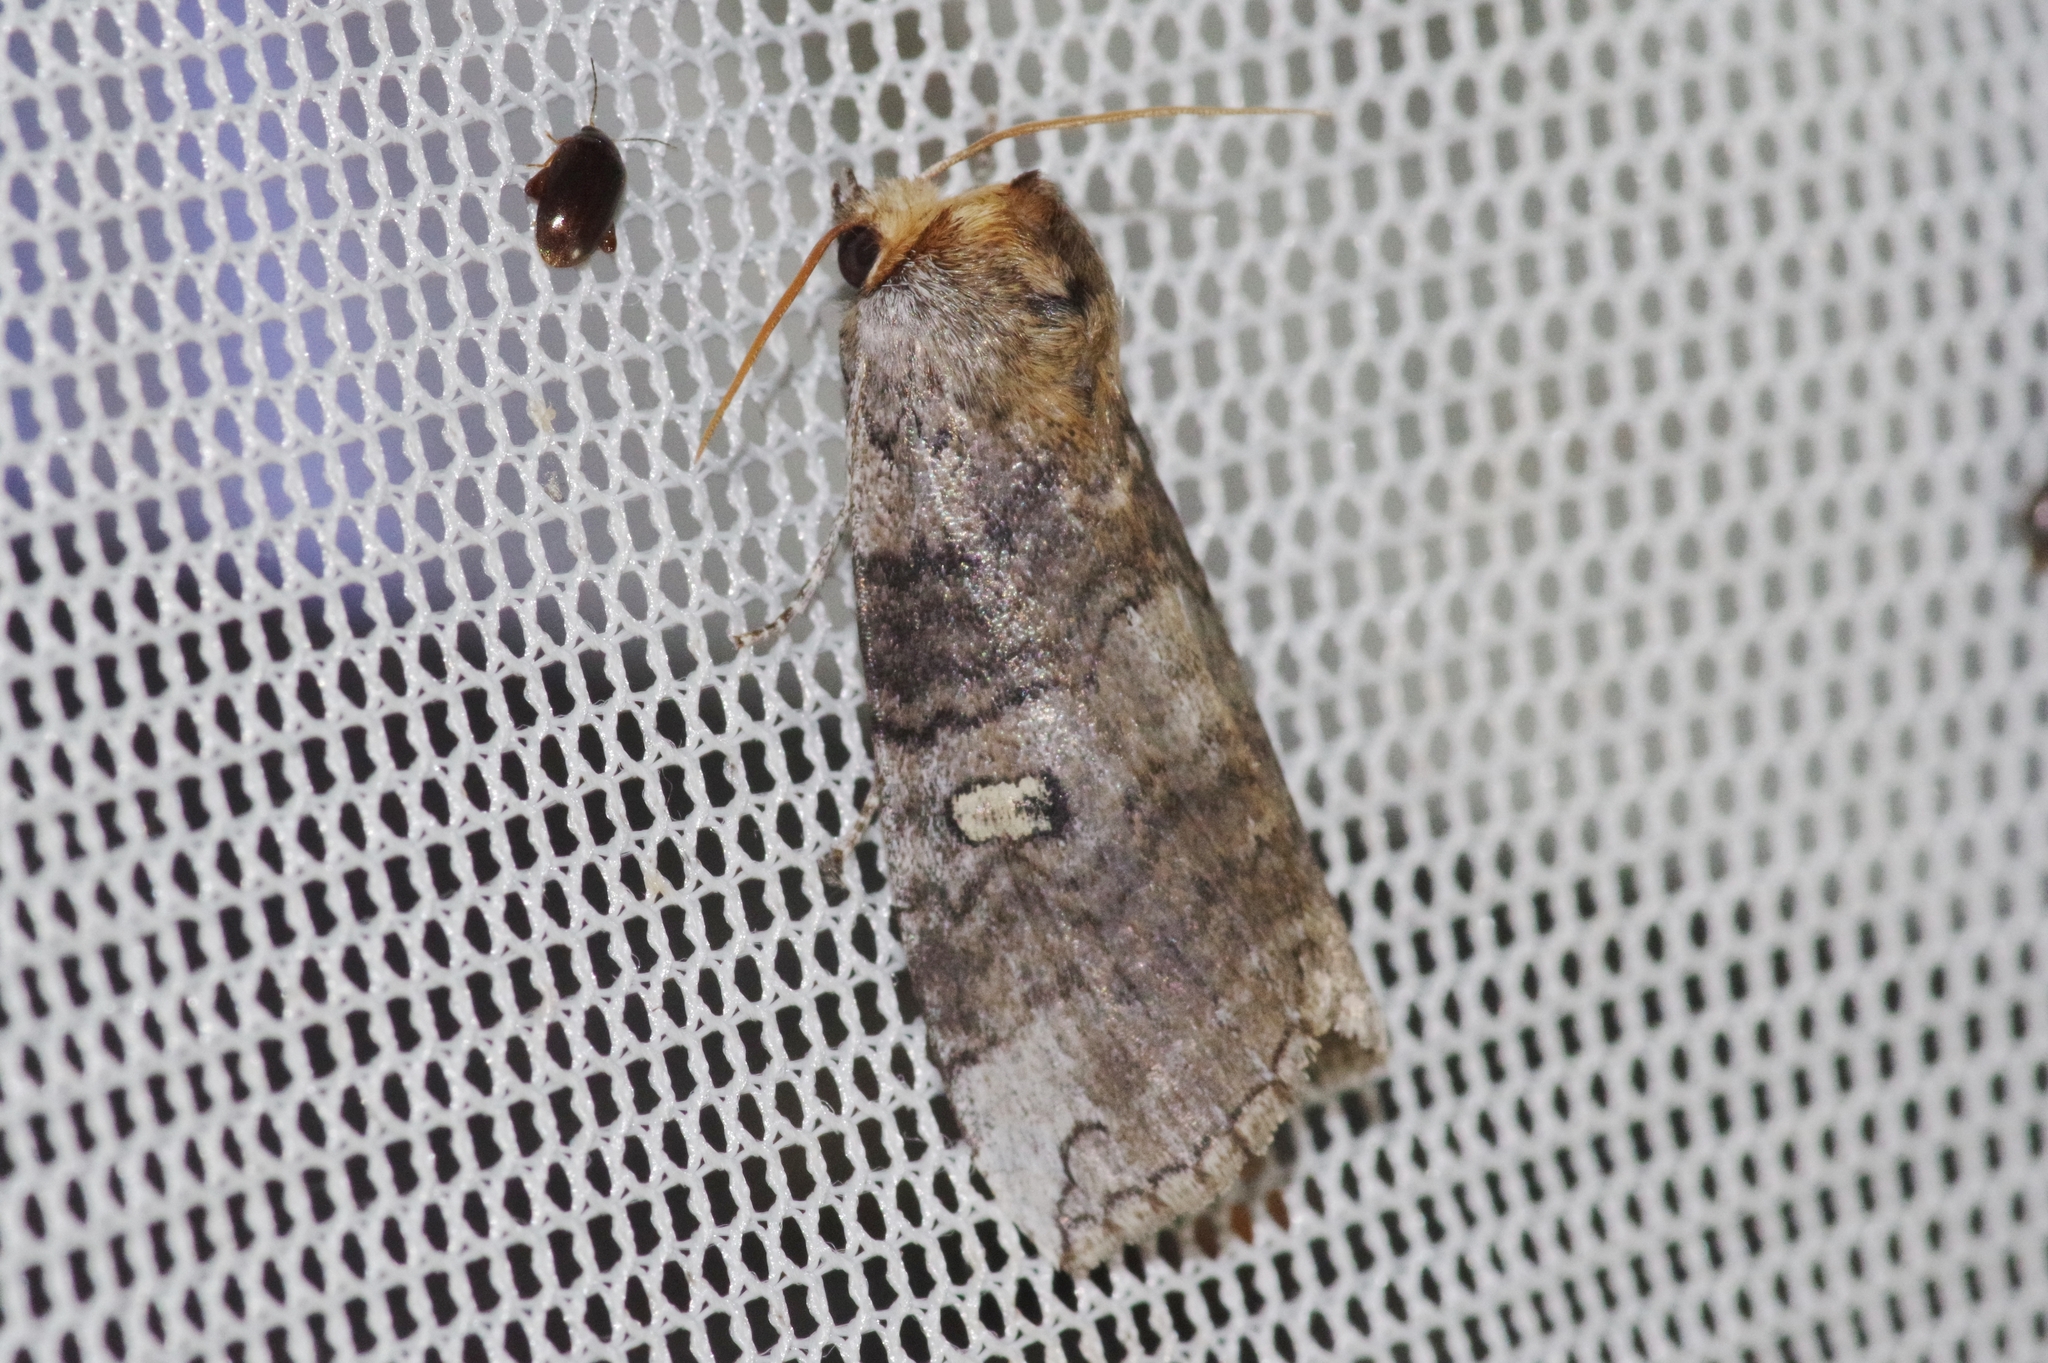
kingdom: Animalia
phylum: Arthropoda
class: Insecta
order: Lepidoptera
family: Drepanidae
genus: Tethea
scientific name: Tethea ampliata
